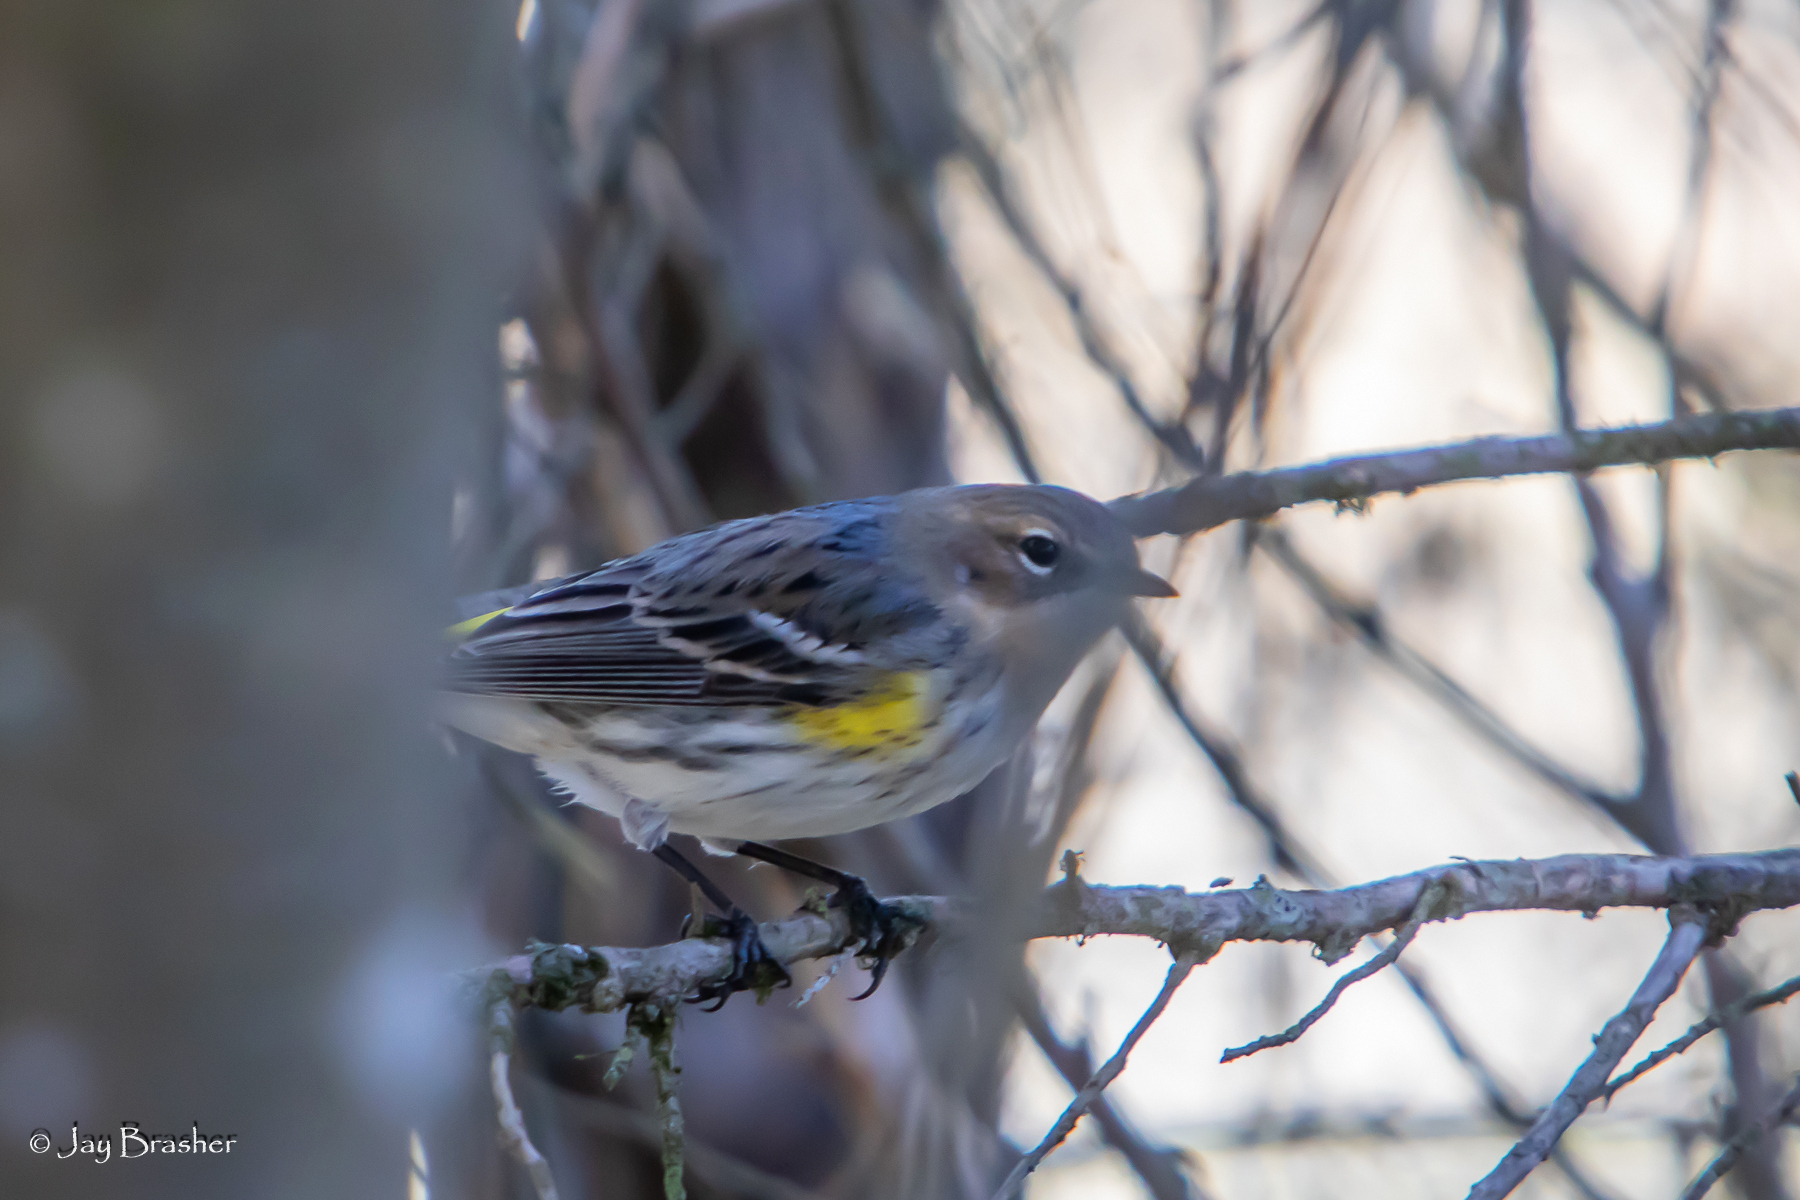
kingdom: Animalia
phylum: Chordata
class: Aves
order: Passeriformes
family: Parulidae
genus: Setophaga
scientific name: Setophaga coronata
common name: Myrtle warbler
